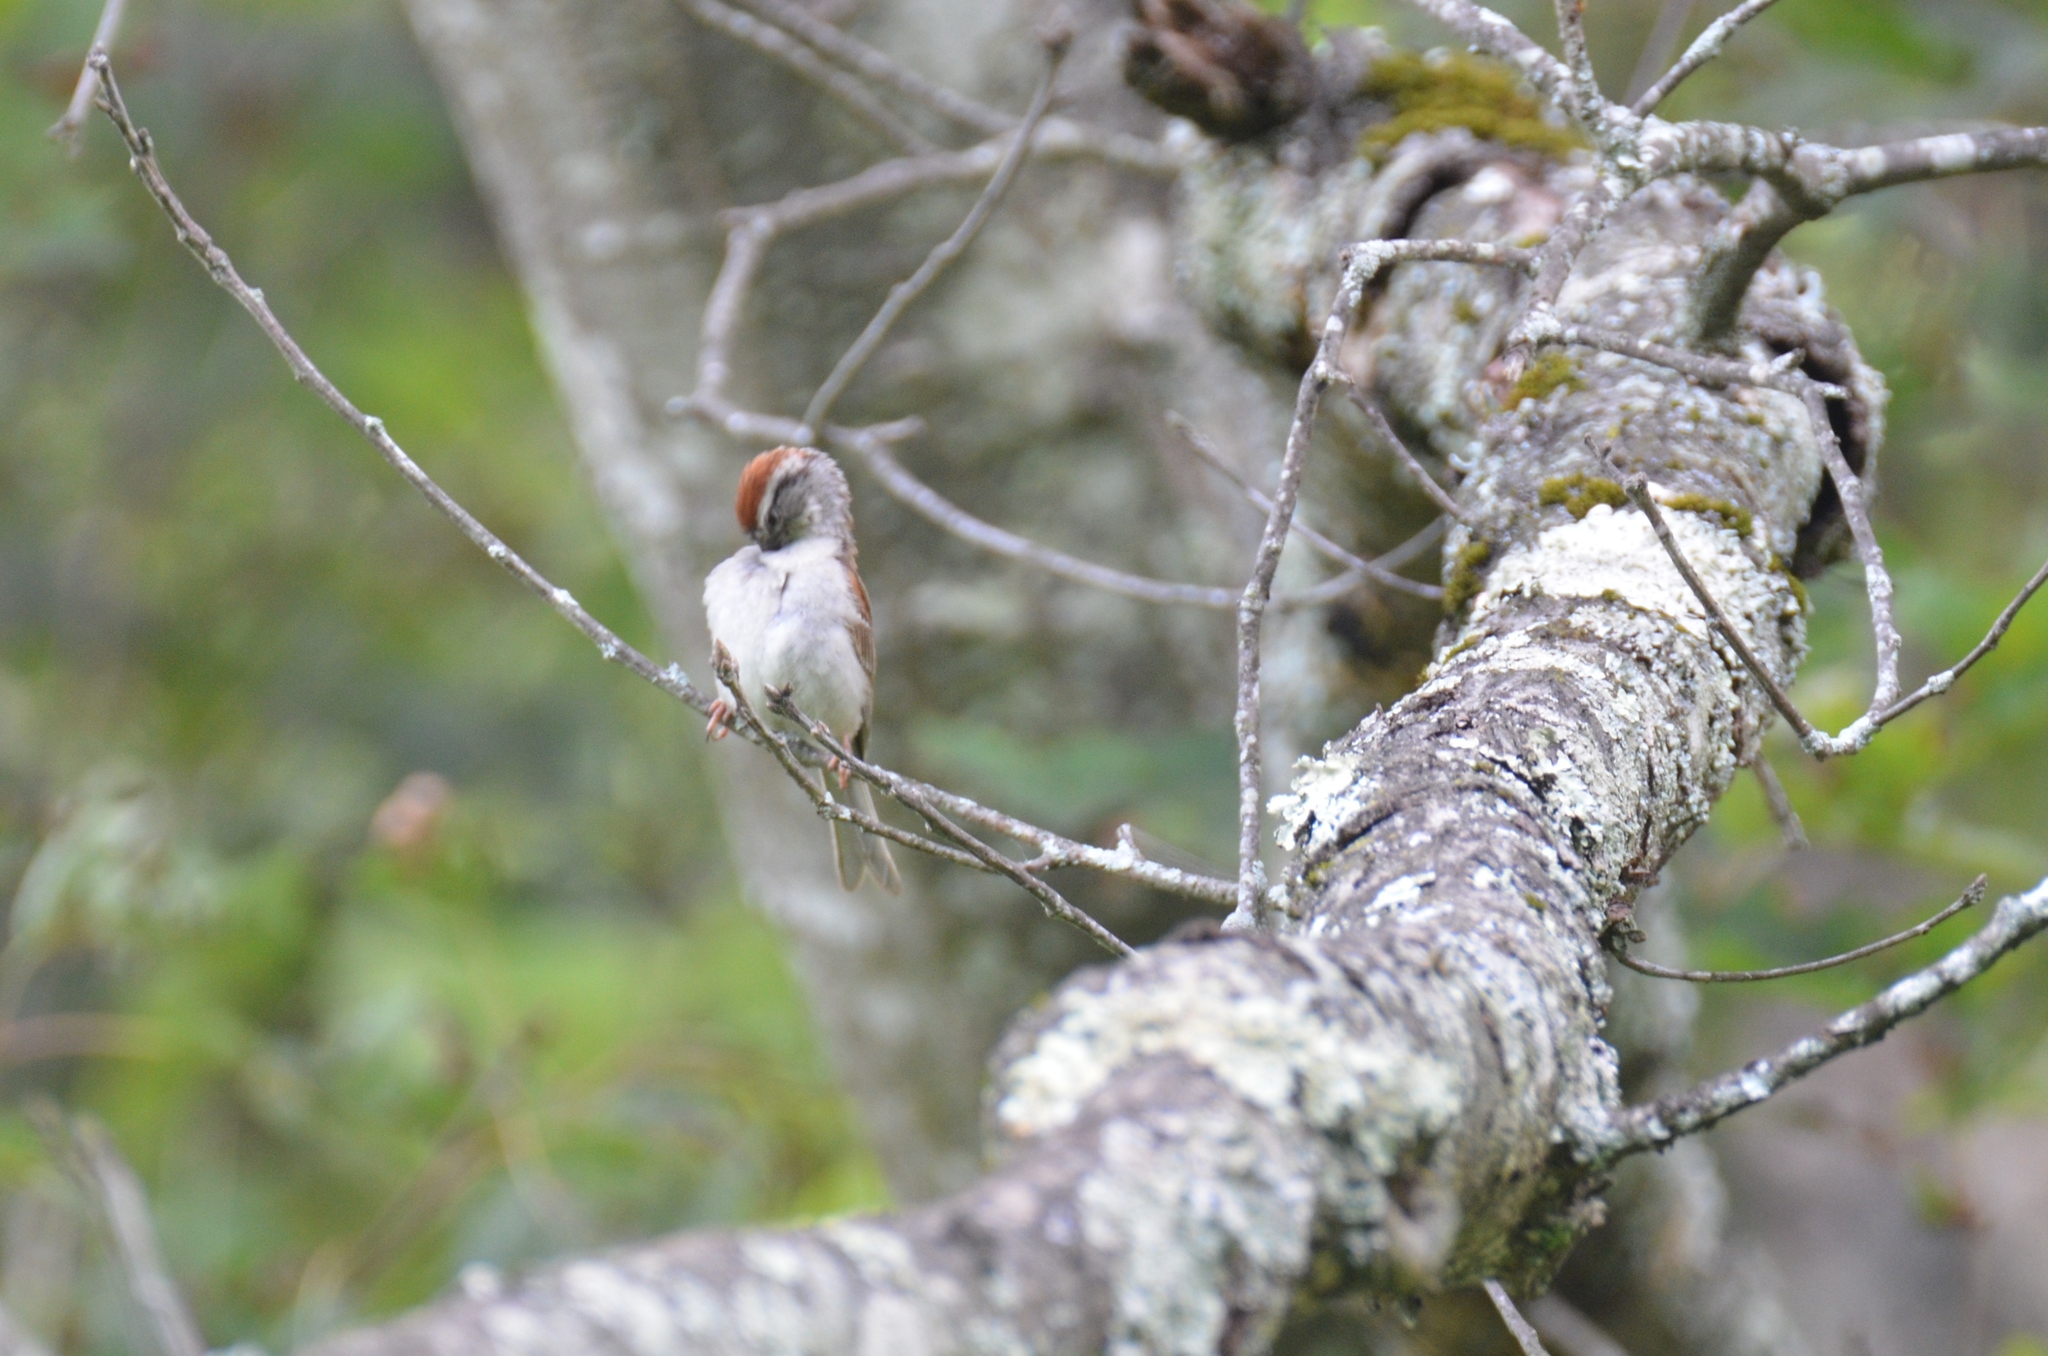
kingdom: Animalia
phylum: Chordata
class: Aves
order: Passeriformes
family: Passerellidae
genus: Spizella
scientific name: Spizella passerina
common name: Chipping sparrow
